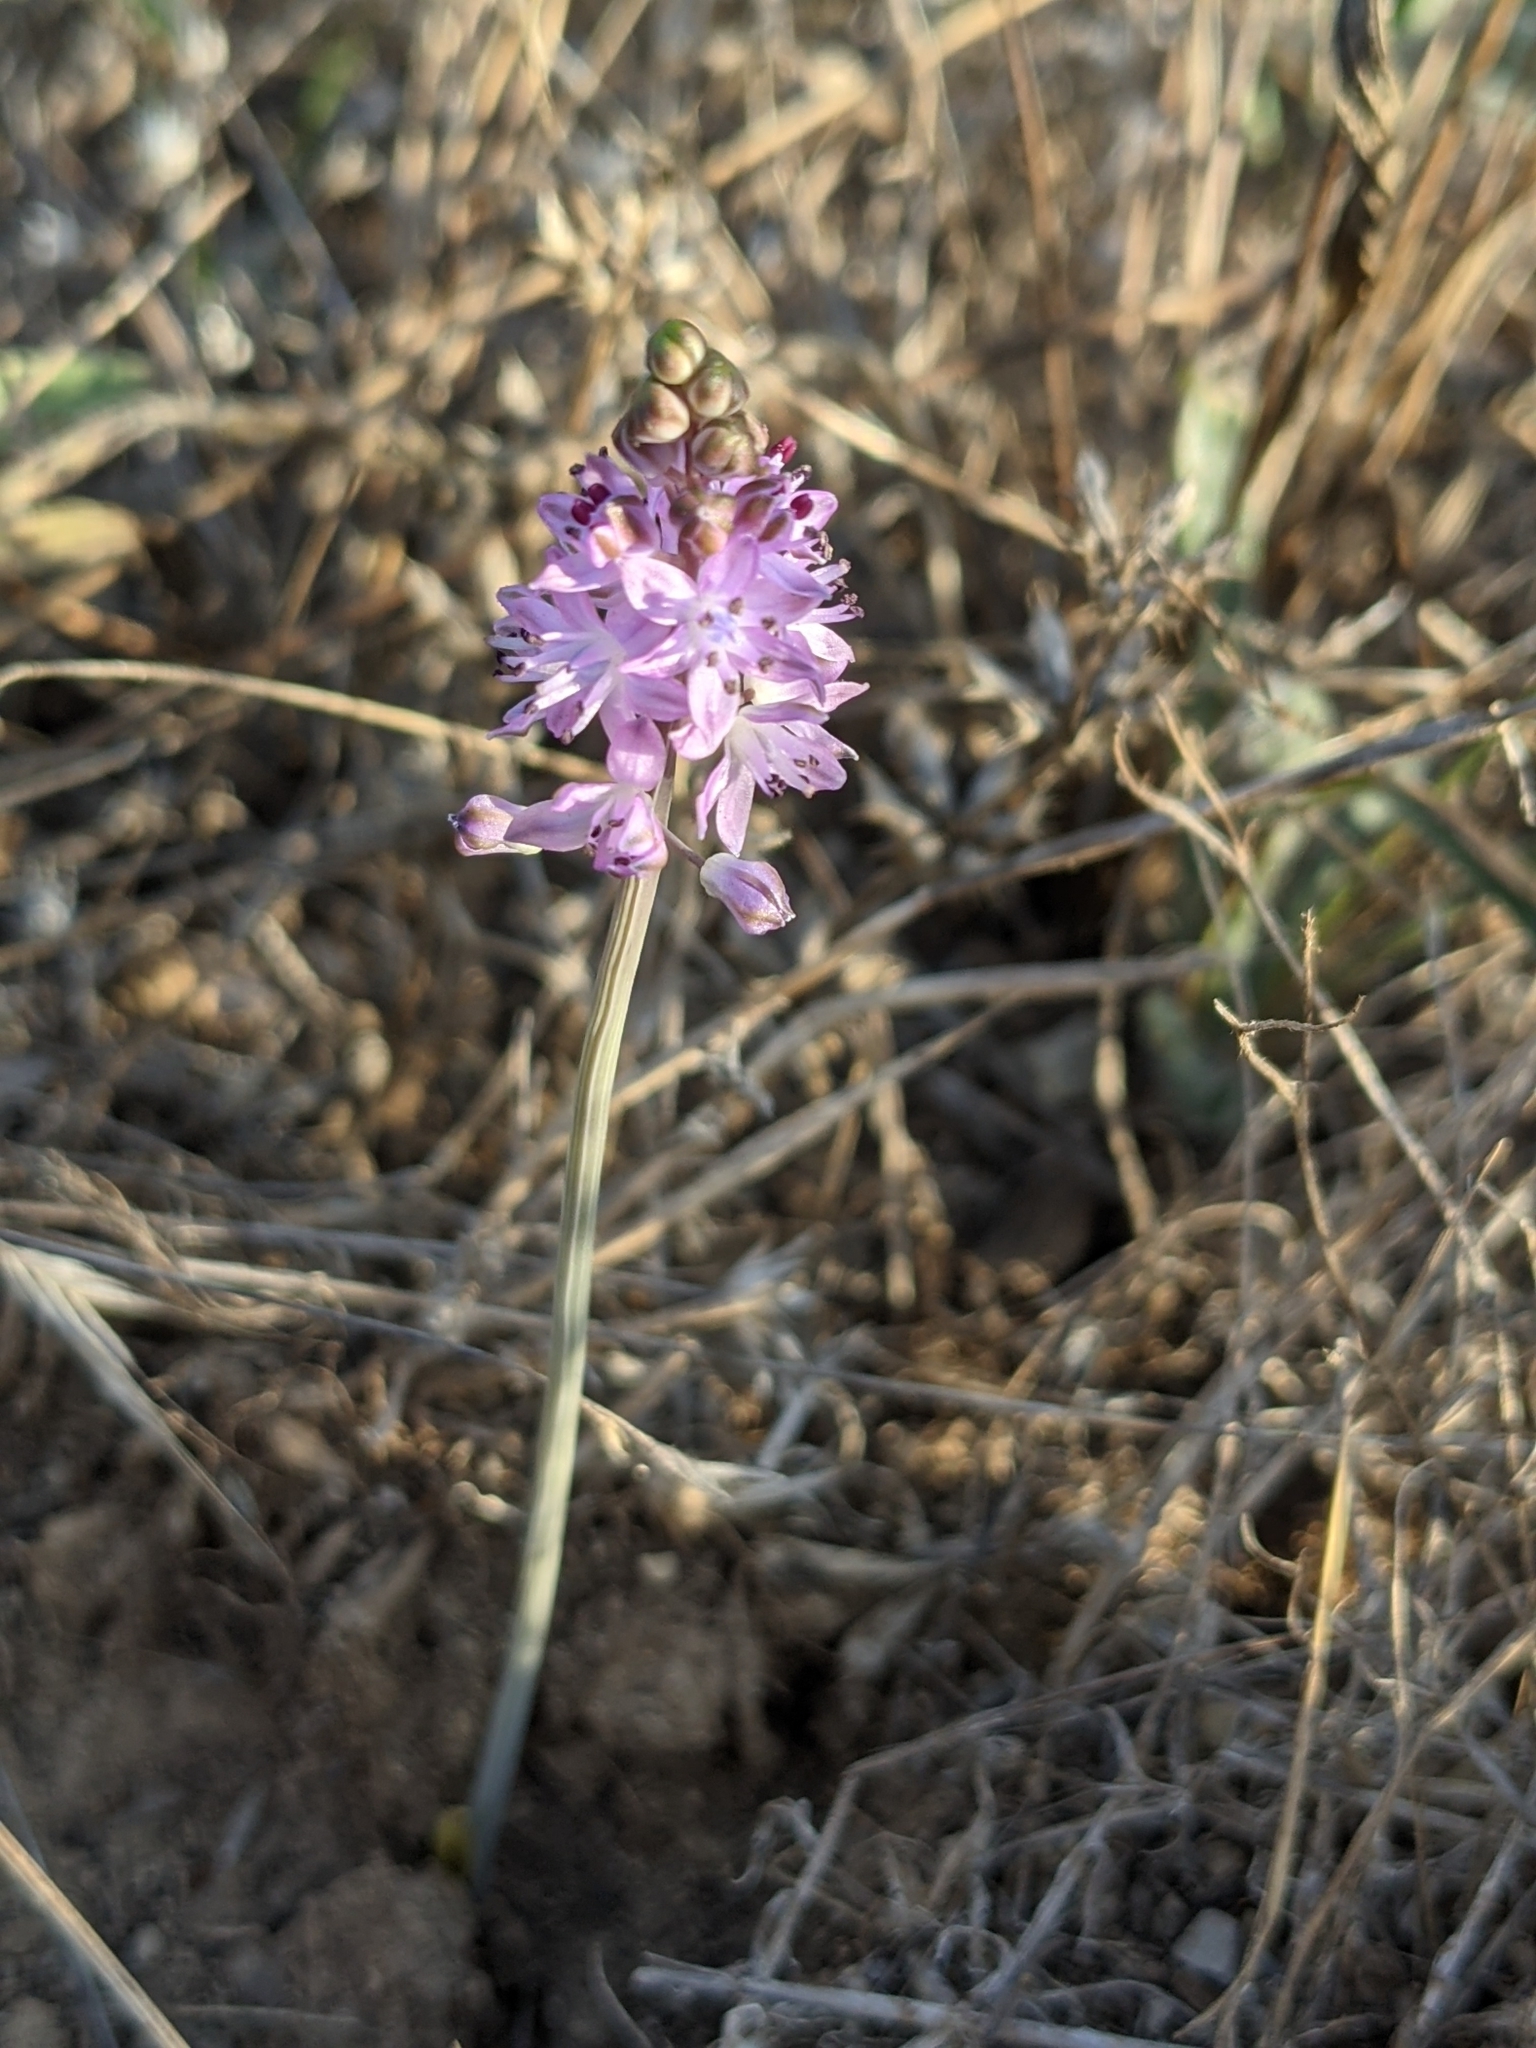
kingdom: Plantae
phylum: Tracheophyta
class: Liliopsida
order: Asparagales
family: Asparagaceae
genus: Prospero
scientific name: Prospero autumnale
